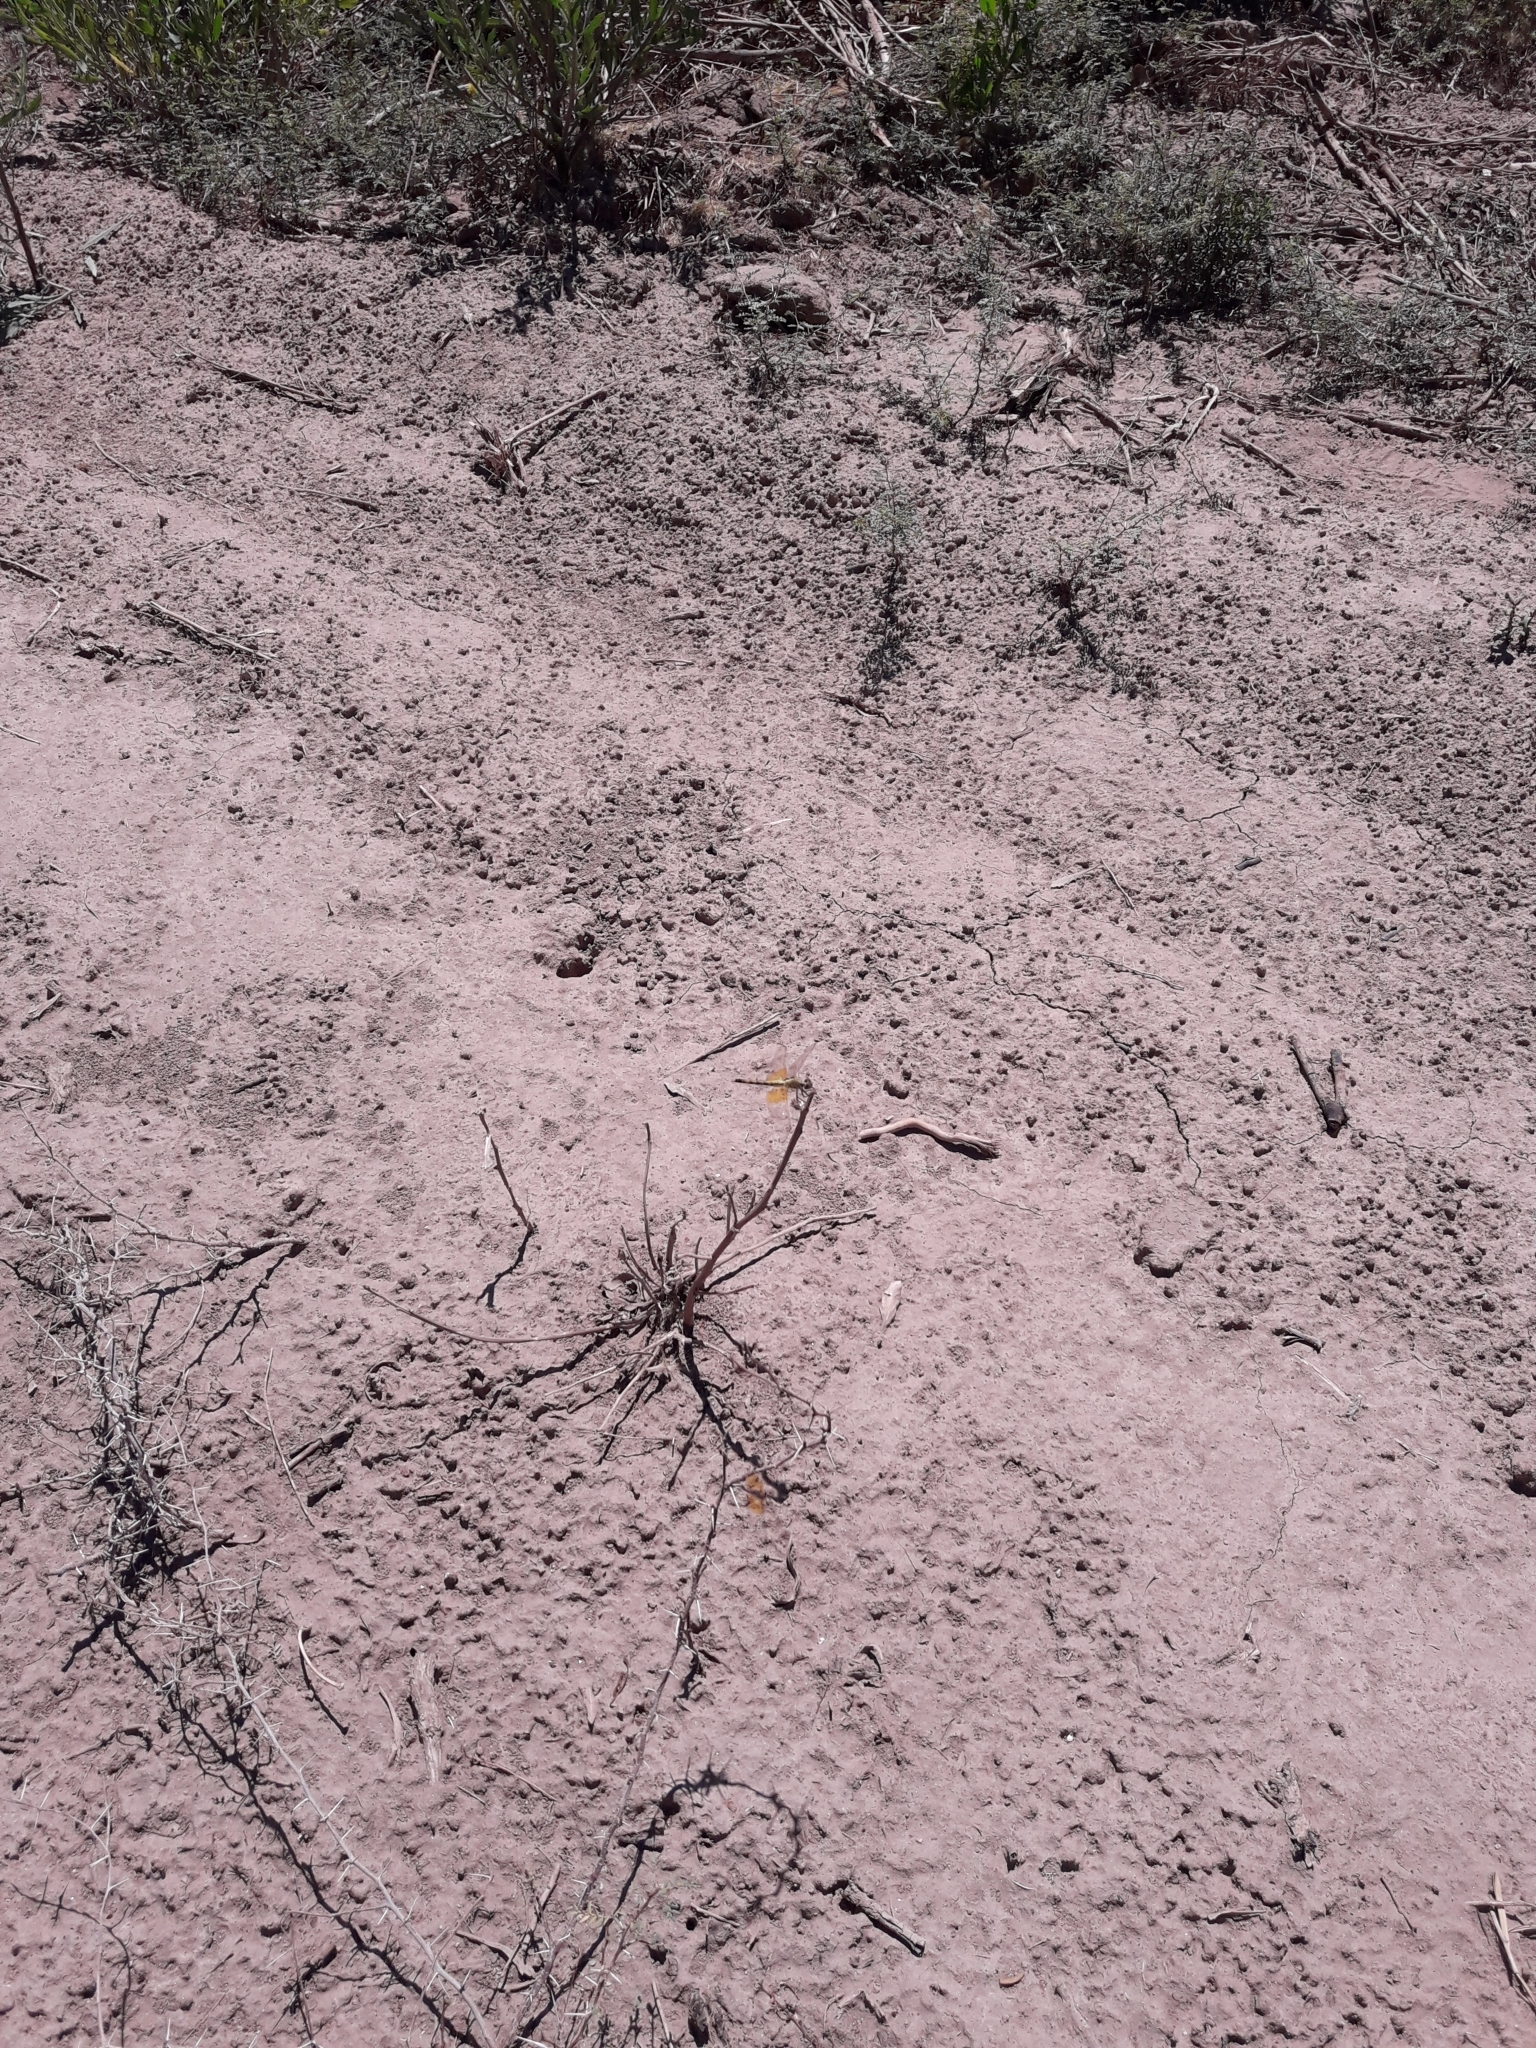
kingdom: Animalia
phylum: Arthropoda
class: Insecta
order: Odonata
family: Libellulidae
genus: Erythrodiplax
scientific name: Erythrodiplax corallina
